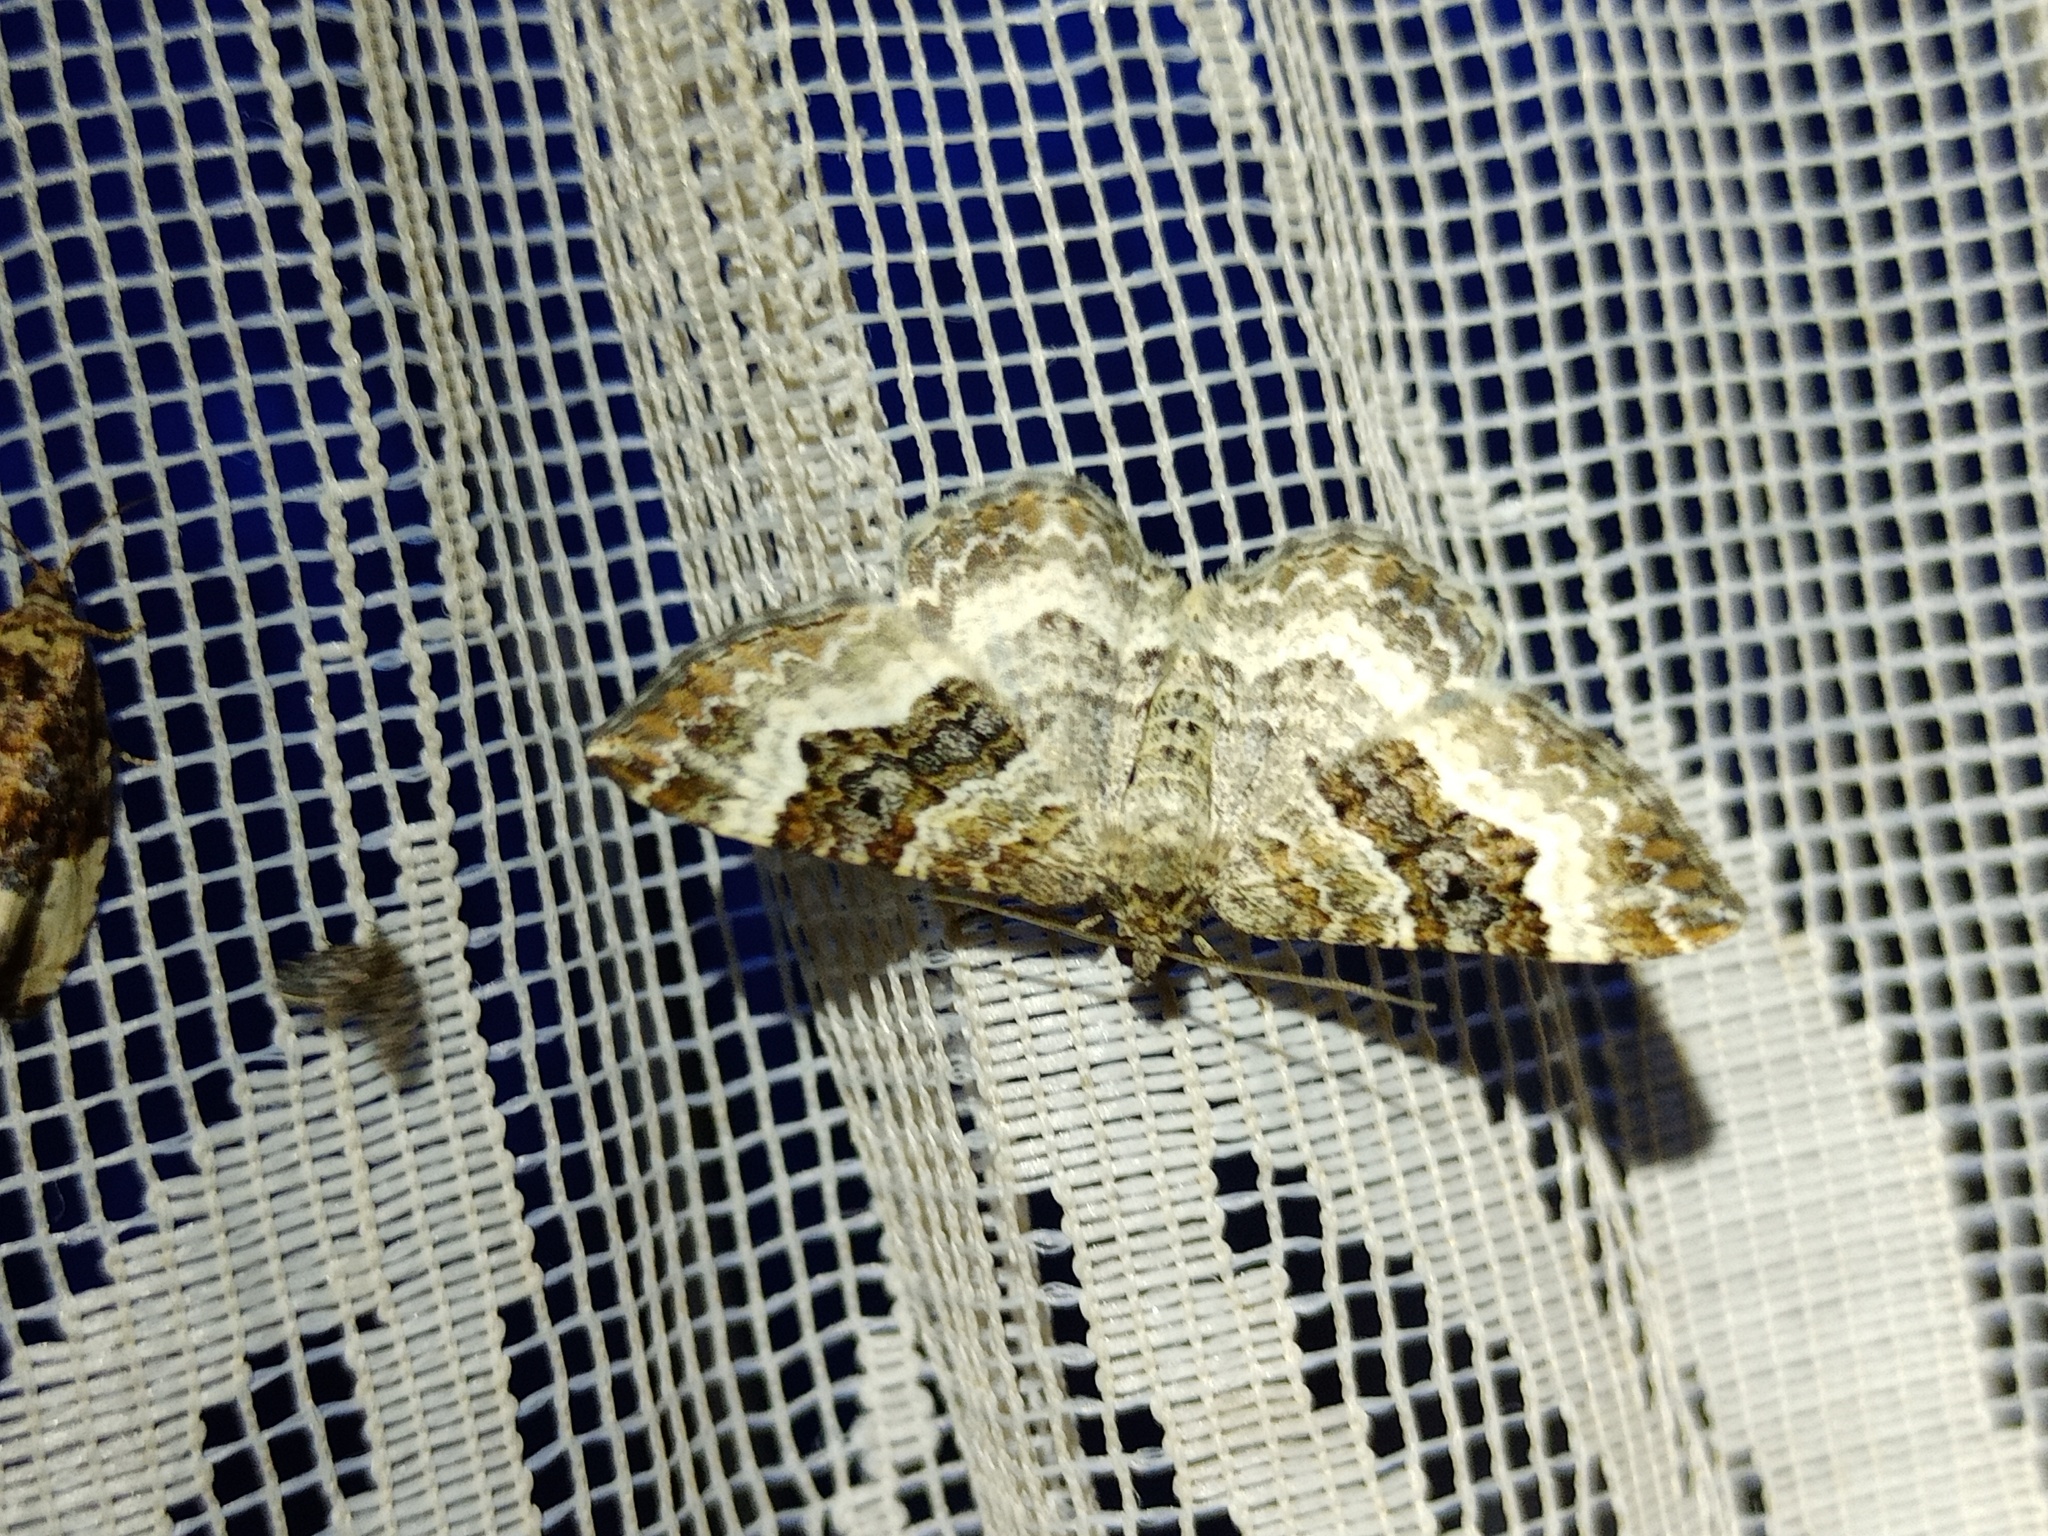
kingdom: Animalia
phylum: Arthropoda
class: Insecta
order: Lepidoptera
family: Geometridae
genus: Epirrhoe
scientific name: Epirrhoe alternata
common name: Common carpet
